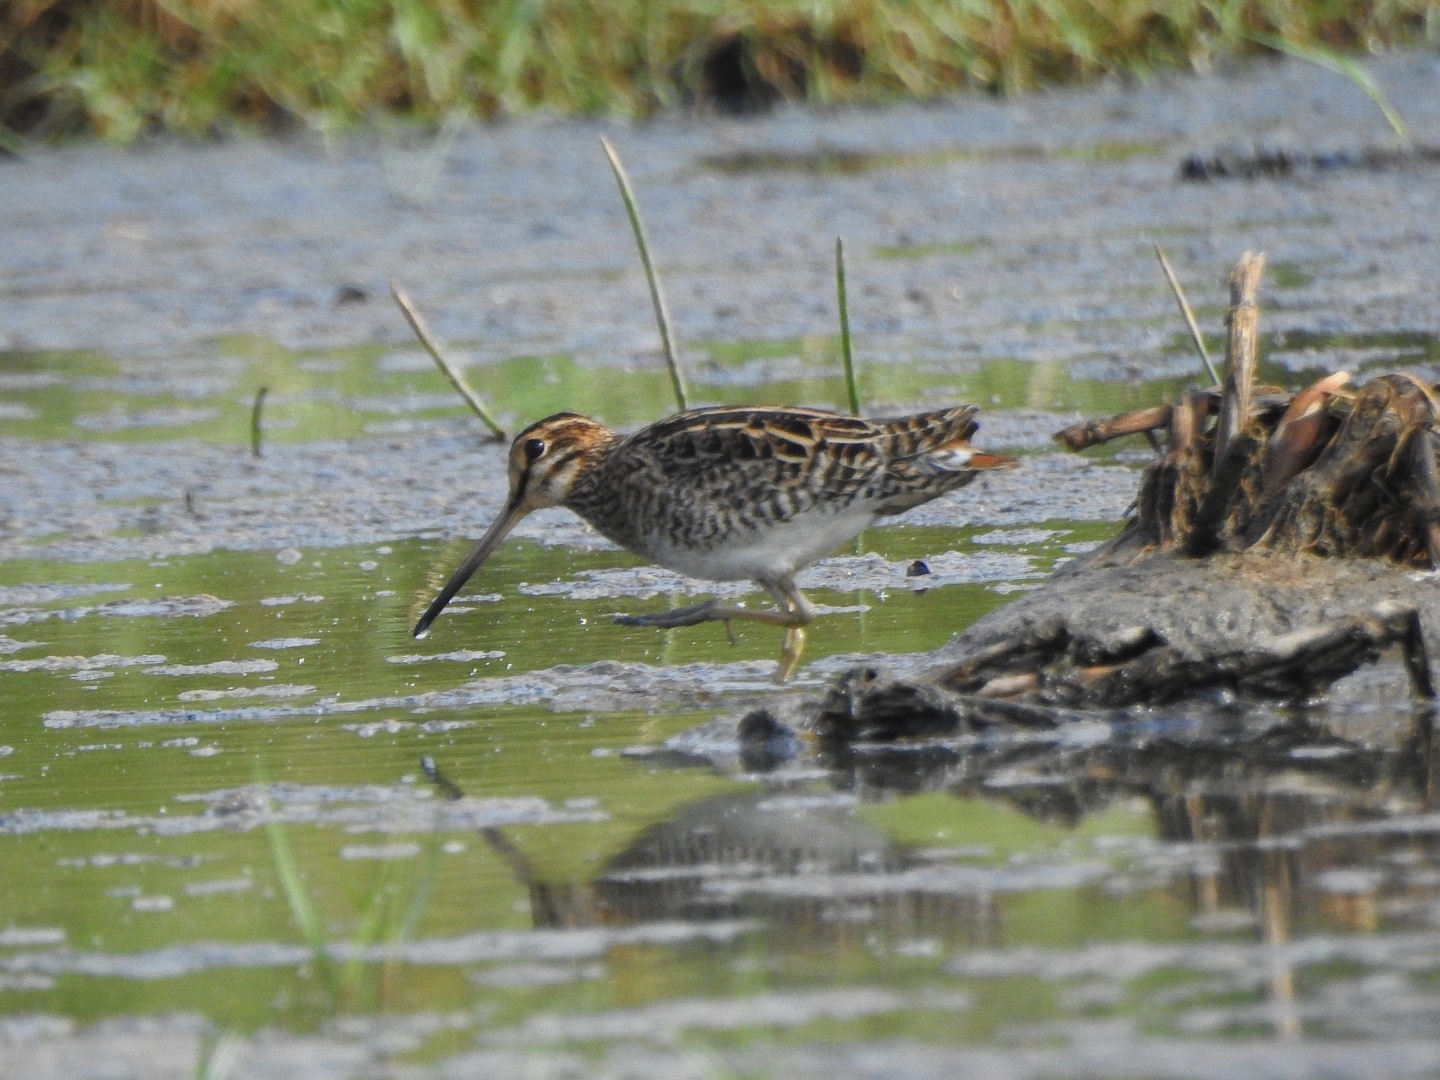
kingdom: Animalia
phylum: Chordata
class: Aves
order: Charadriiformes
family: Scolopacidae
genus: Gallinago
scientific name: Gallinago gallinago
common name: Common snipe
